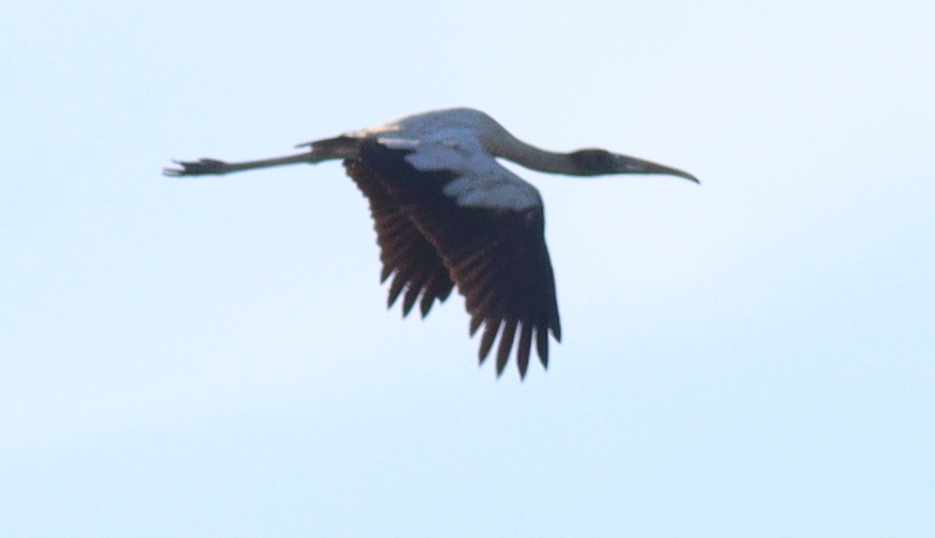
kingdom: Animalia
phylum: Chordata
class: Aves
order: Ciconiiformes
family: Ciconiidae
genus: Mycteria
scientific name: Mycteria americana
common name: Wood stork
